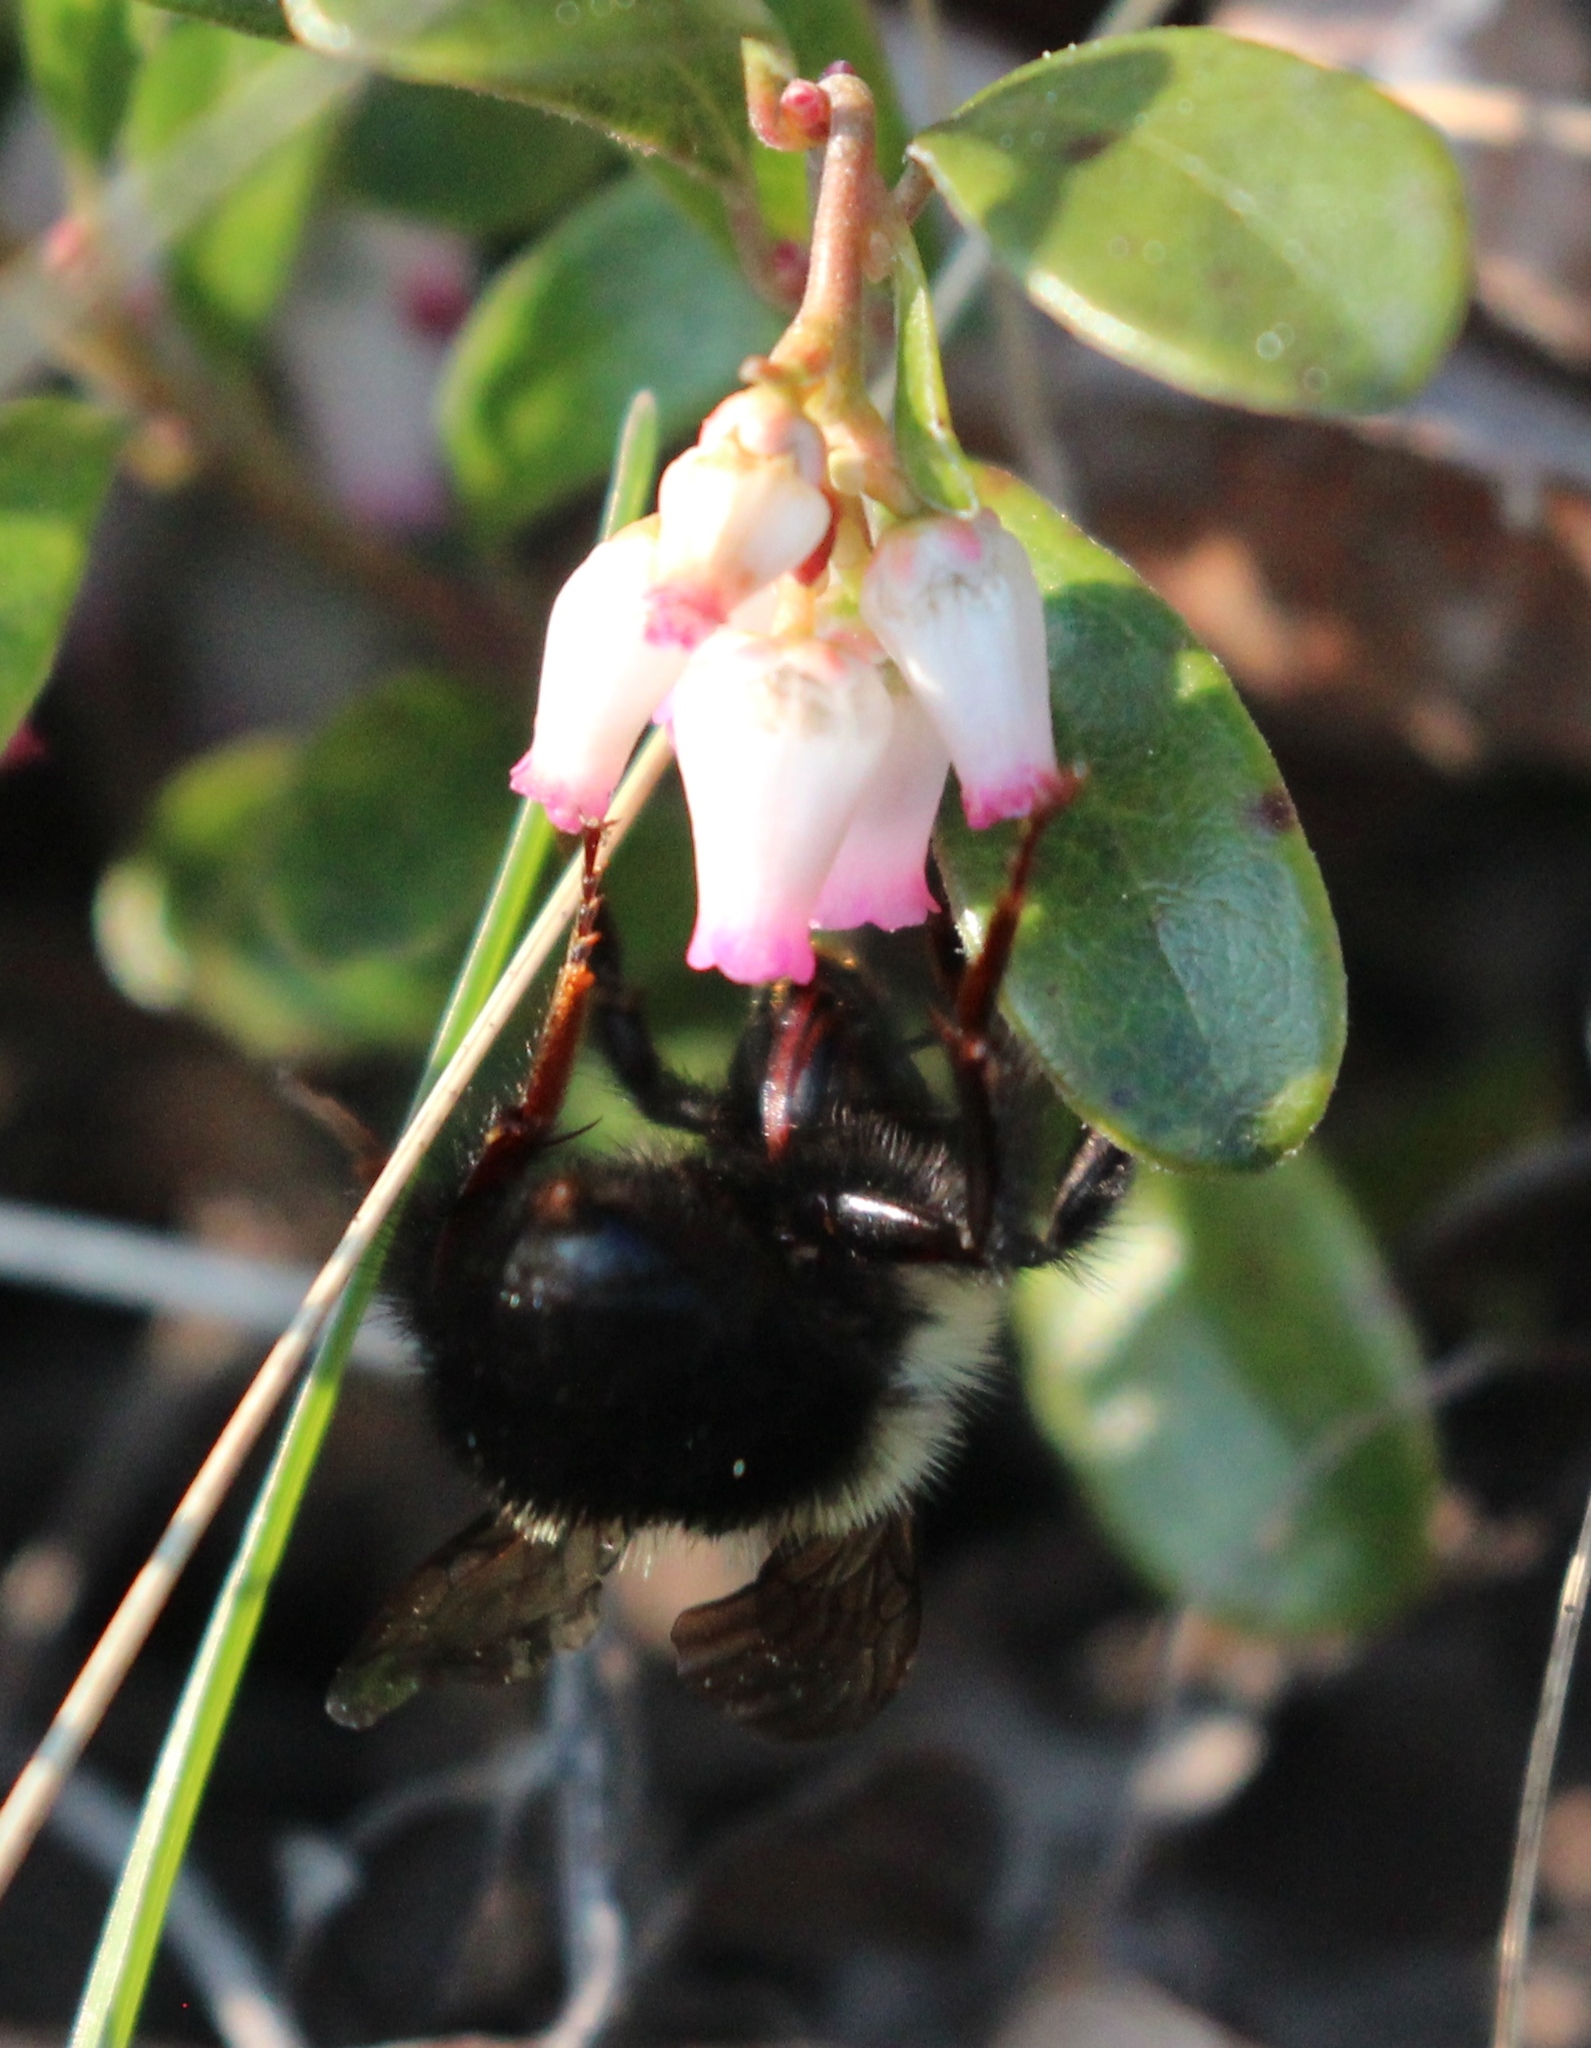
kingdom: Animalia
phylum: Arthropoda
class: Insecta
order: Hymenoptera
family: Apidae
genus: Bombus
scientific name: Bombus
